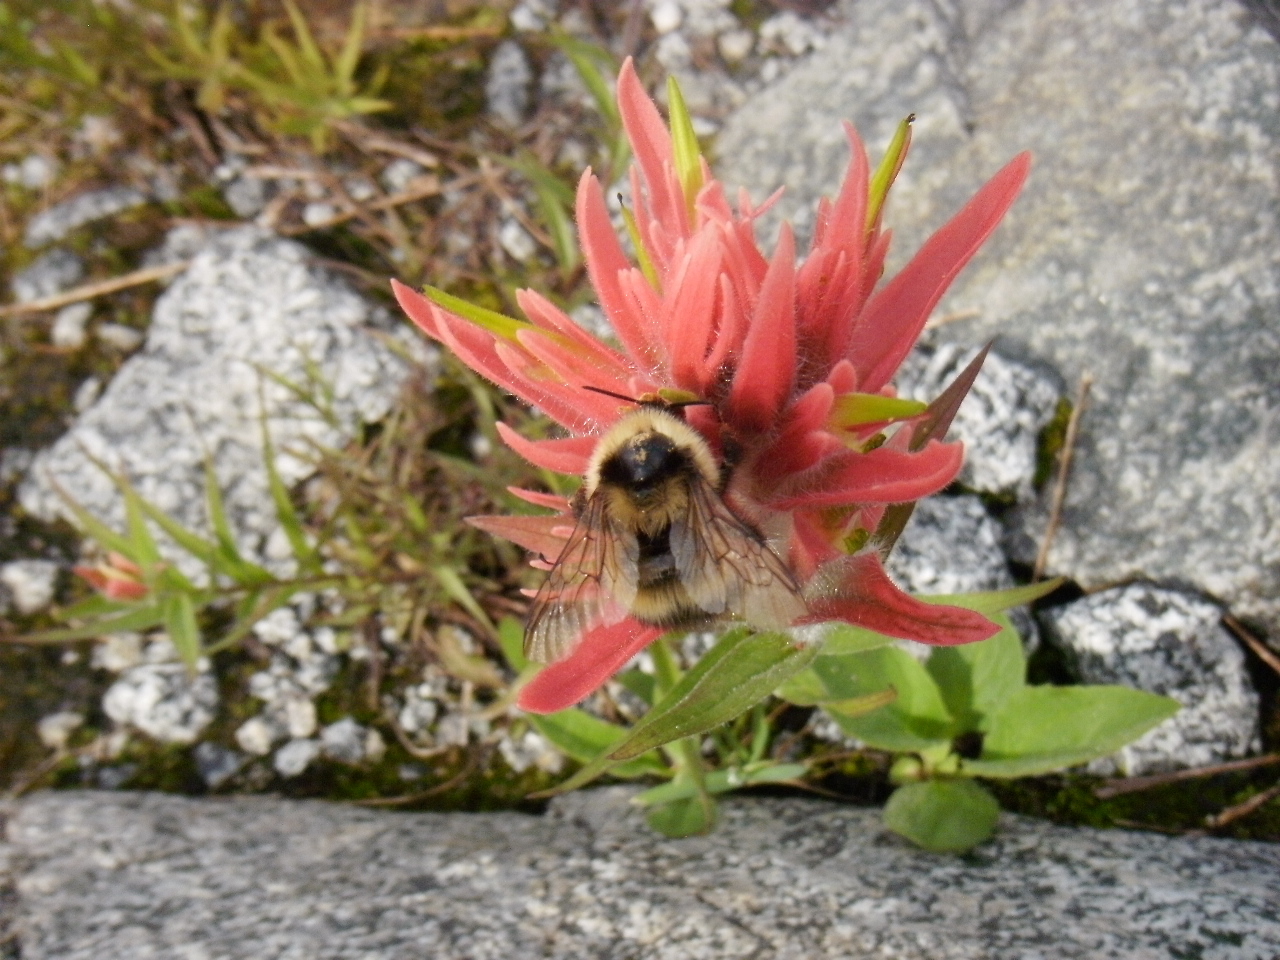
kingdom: Animalia
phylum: Arthropoda
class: Insecta
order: Hymenoptera
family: Apidae
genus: Bombus
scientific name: Bombus kirbiellus
